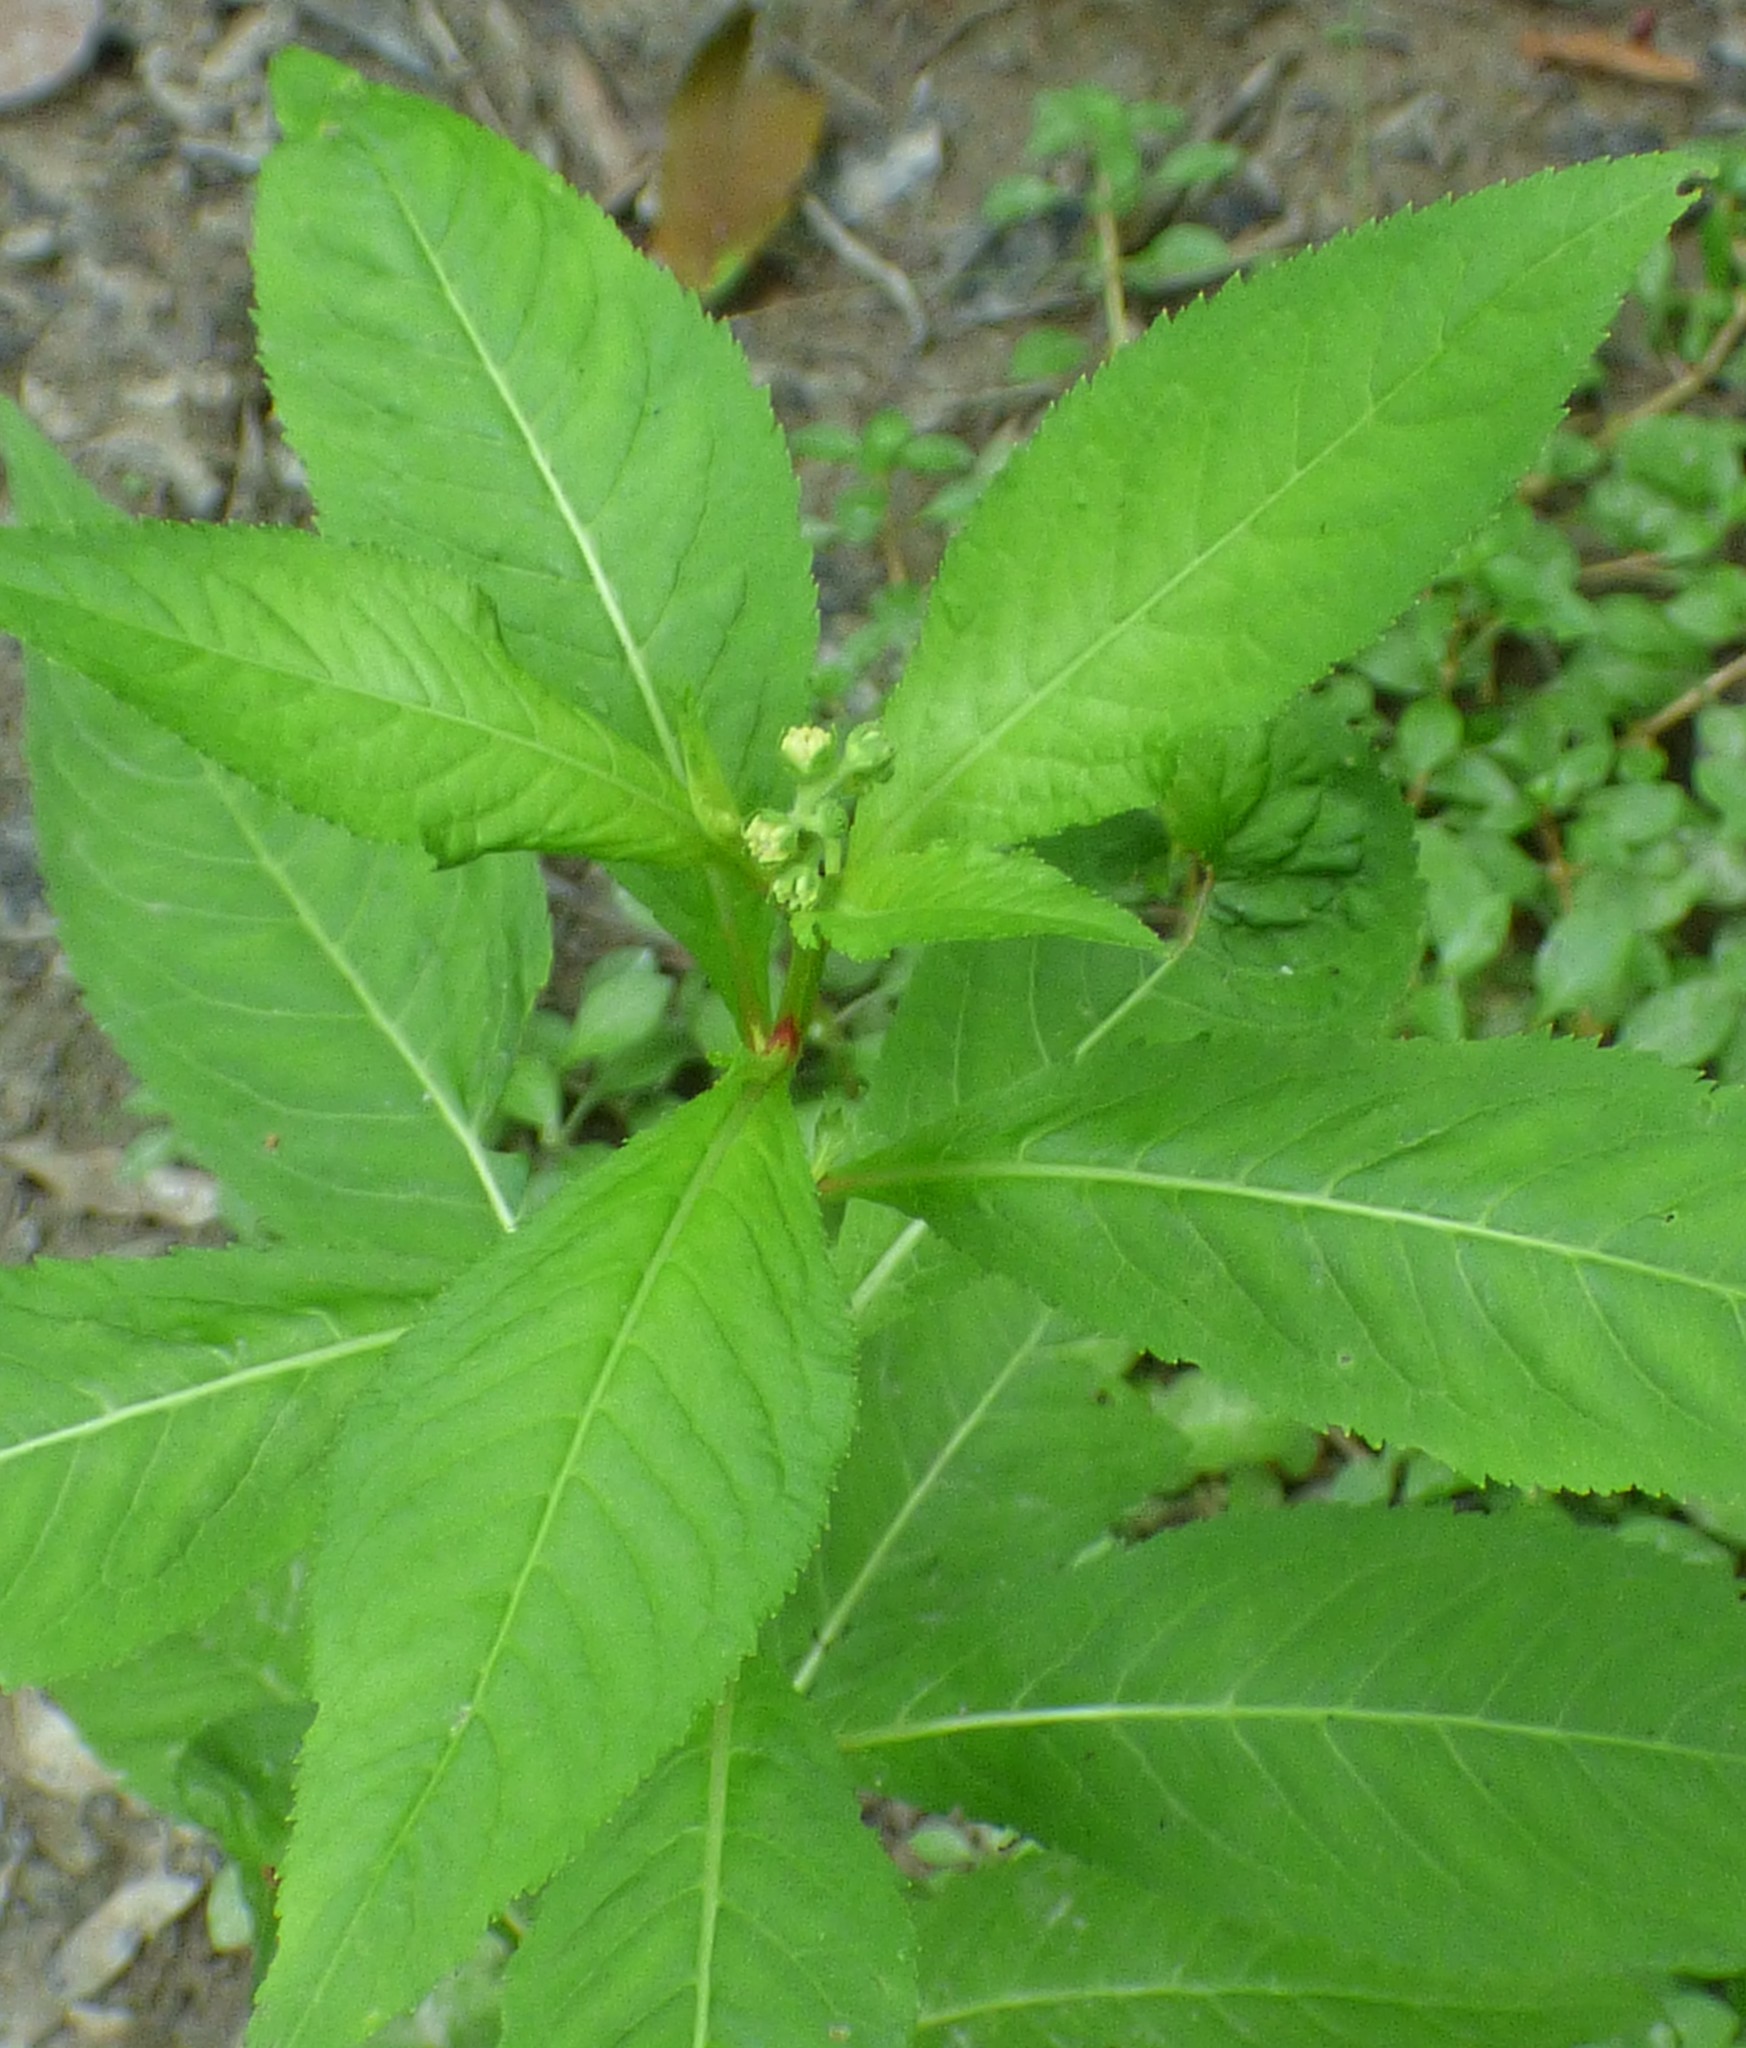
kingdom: Plantae
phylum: Tracheophyta
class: Magnoliopsida
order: Saxifragales
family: Penthoraceae
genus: Penthorum
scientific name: Penthorum sedoides
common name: Ditch stonecrop
